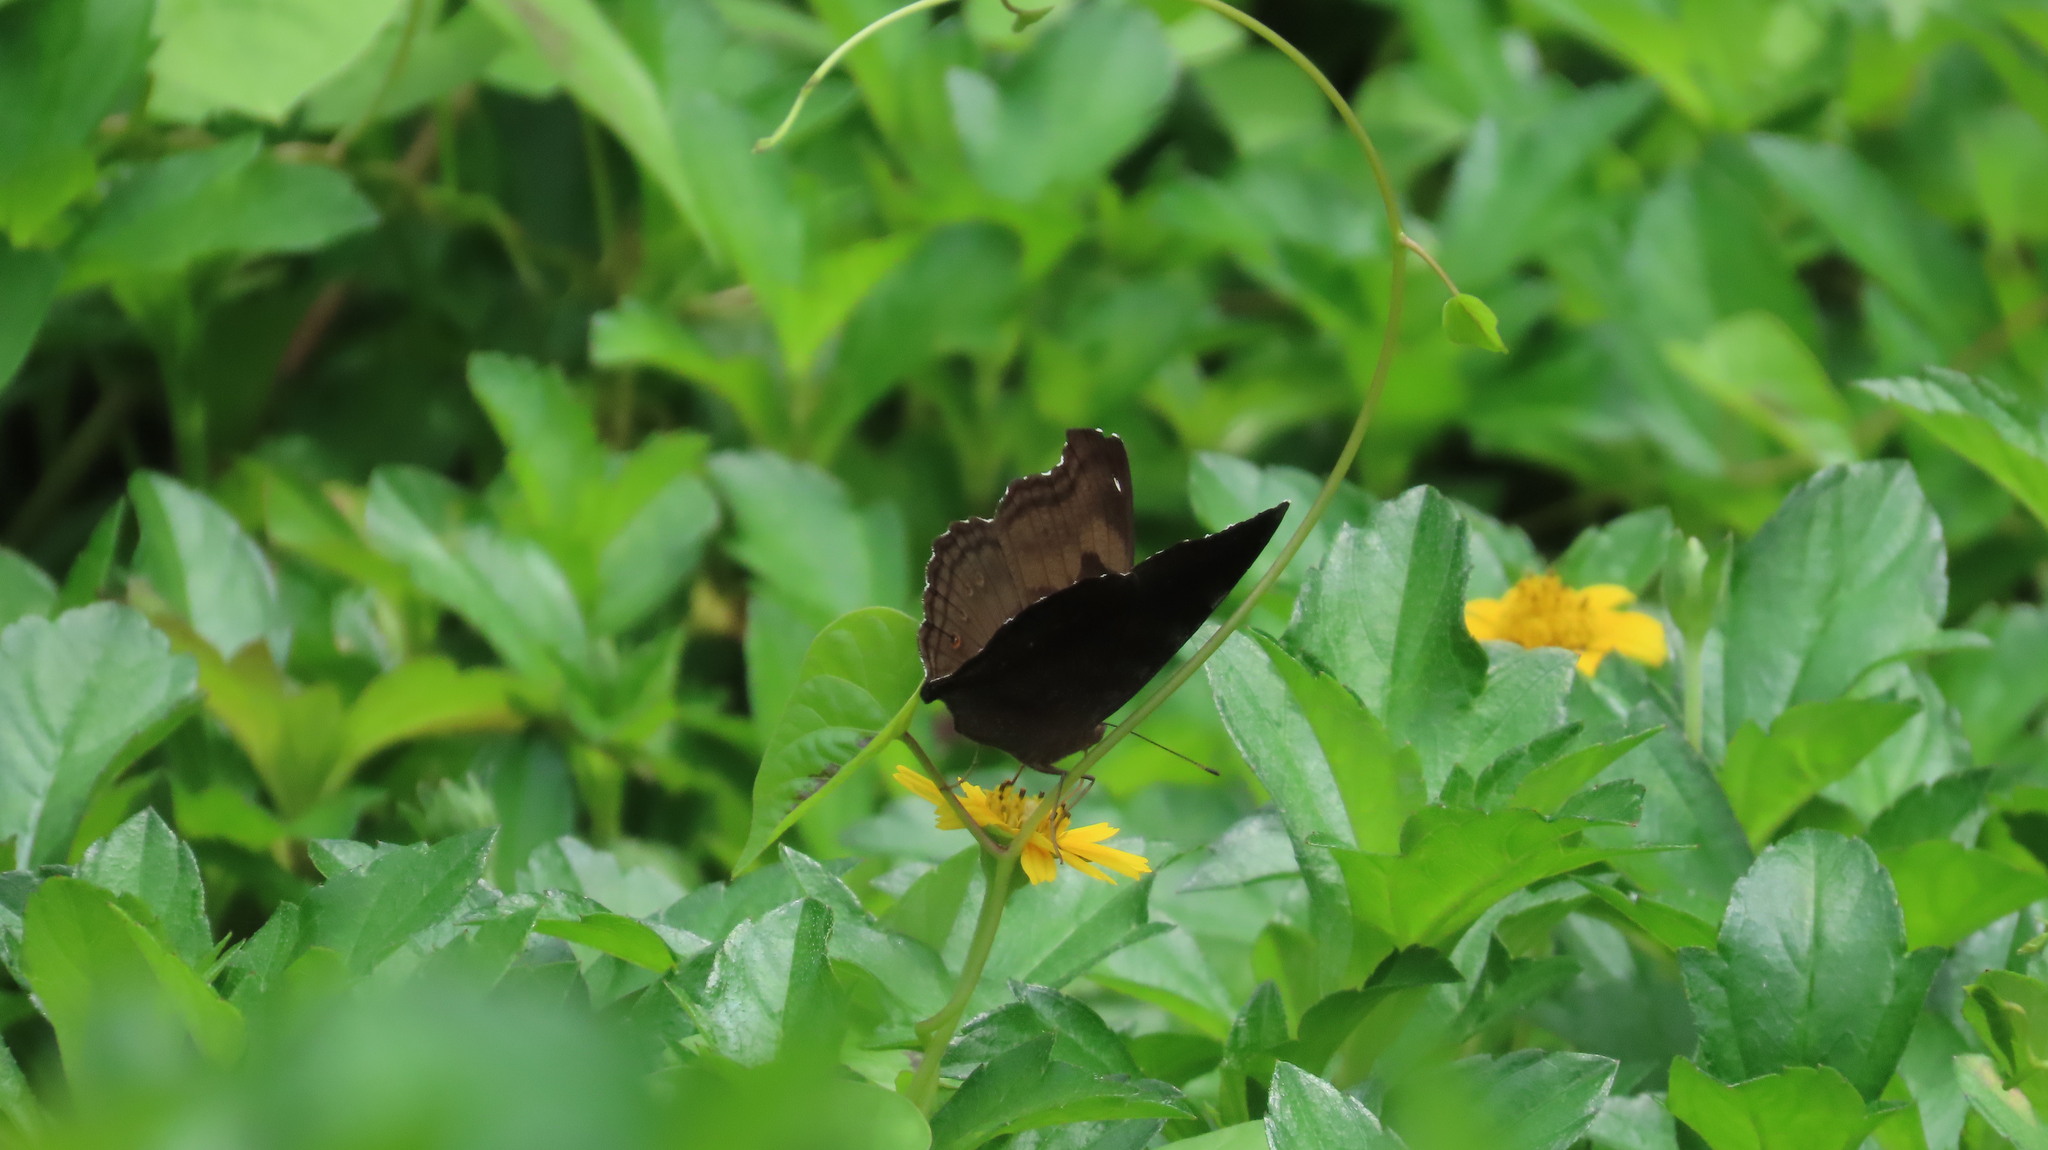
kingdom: Animalia
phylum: Arthropoda
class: Insecta
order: Lepidoptera
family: Nymphalidae
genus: Junonia
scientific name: Junonia iphita
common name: Chocolate pansy
